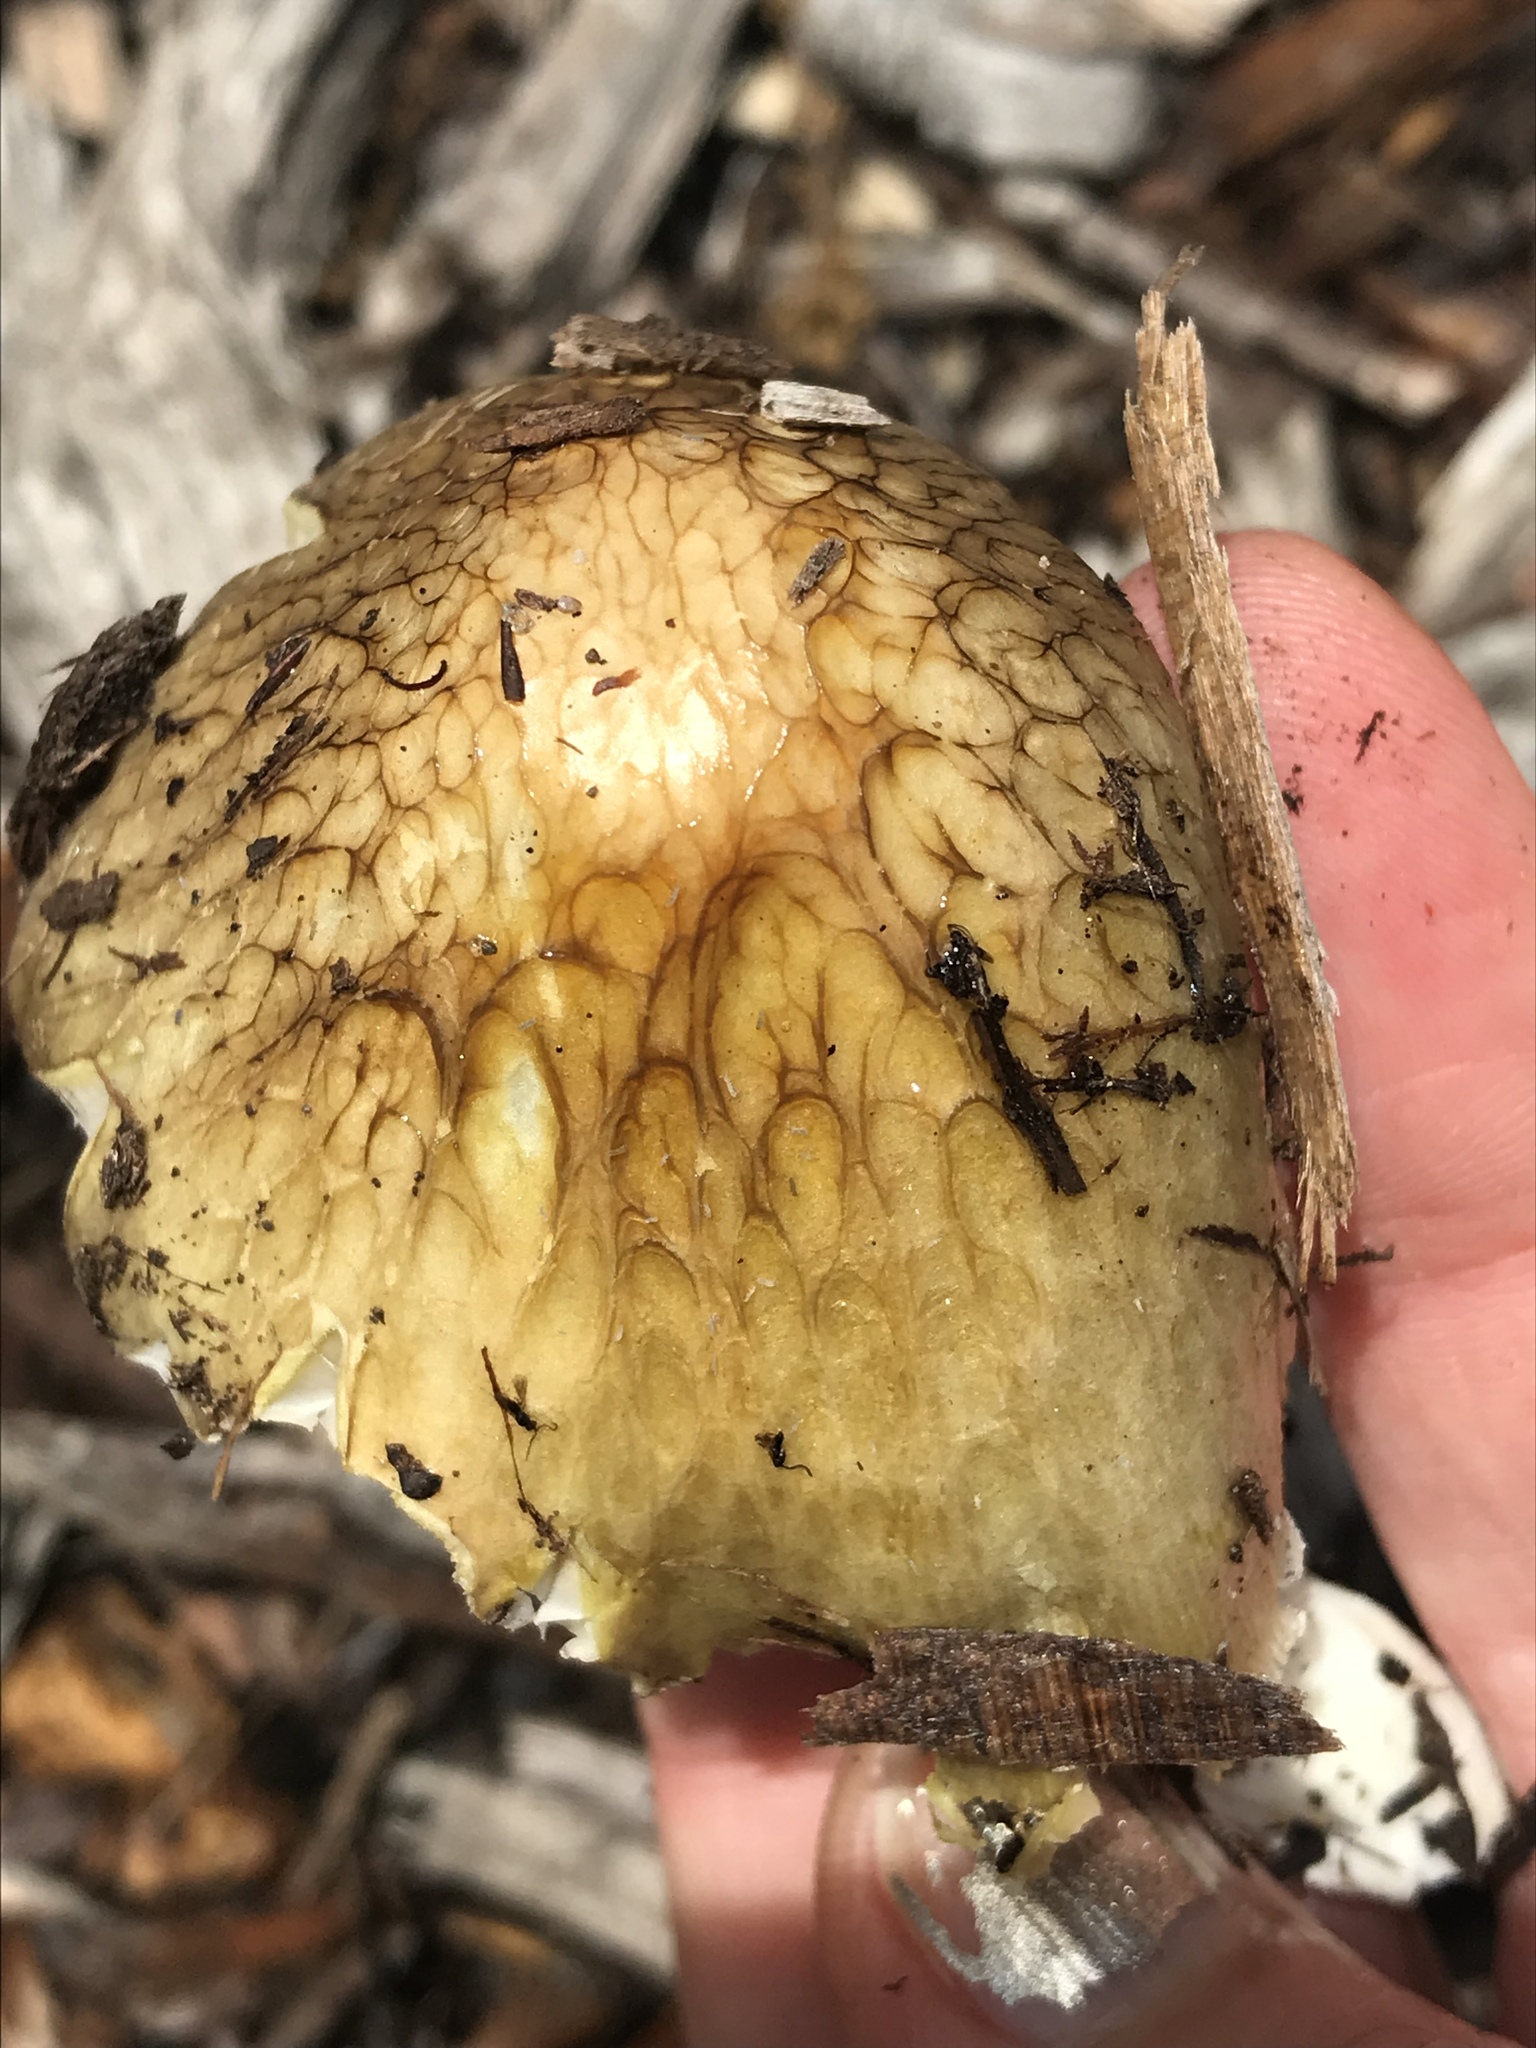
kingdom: Fungi
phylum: Basidiomycota
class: Agaricomycetes
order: Agaricales
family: Bolbitiaceae
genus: Bolbitius
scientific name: Bolbitius titubans
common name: Yellow fieldcap
